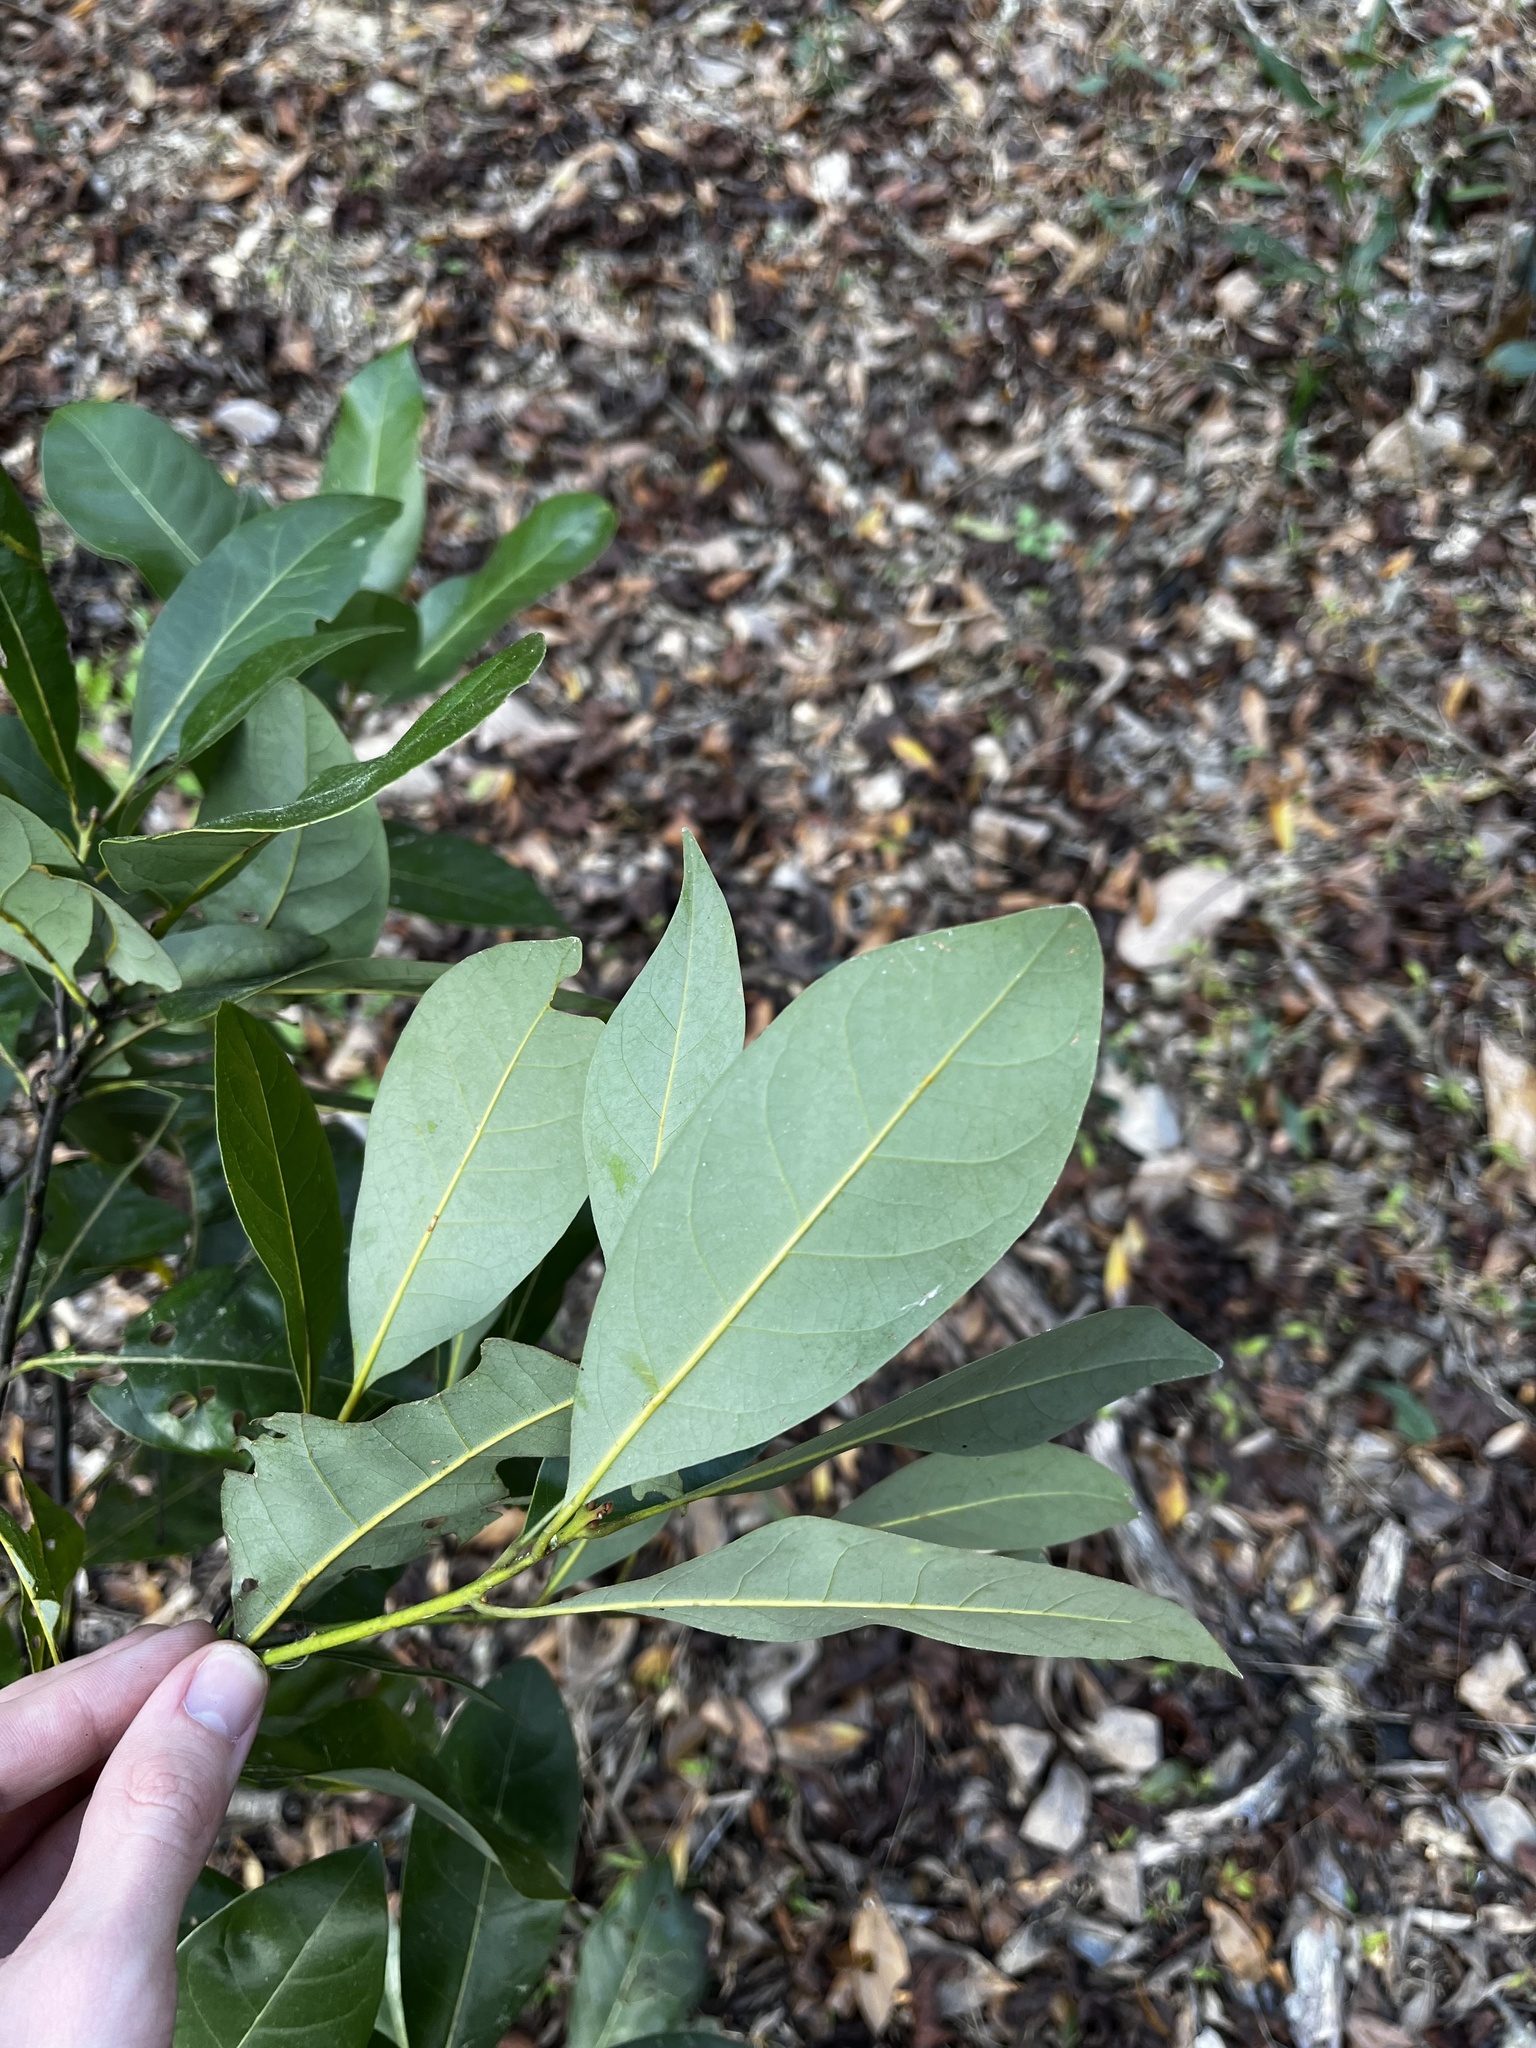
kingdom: Plantae
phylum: Tracheophyta
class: Magnoliopsida
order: Magnoliales
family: Magnoliaceae
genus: Magnolia
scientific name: Magnolia grandiflora
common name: Southern magnolia
